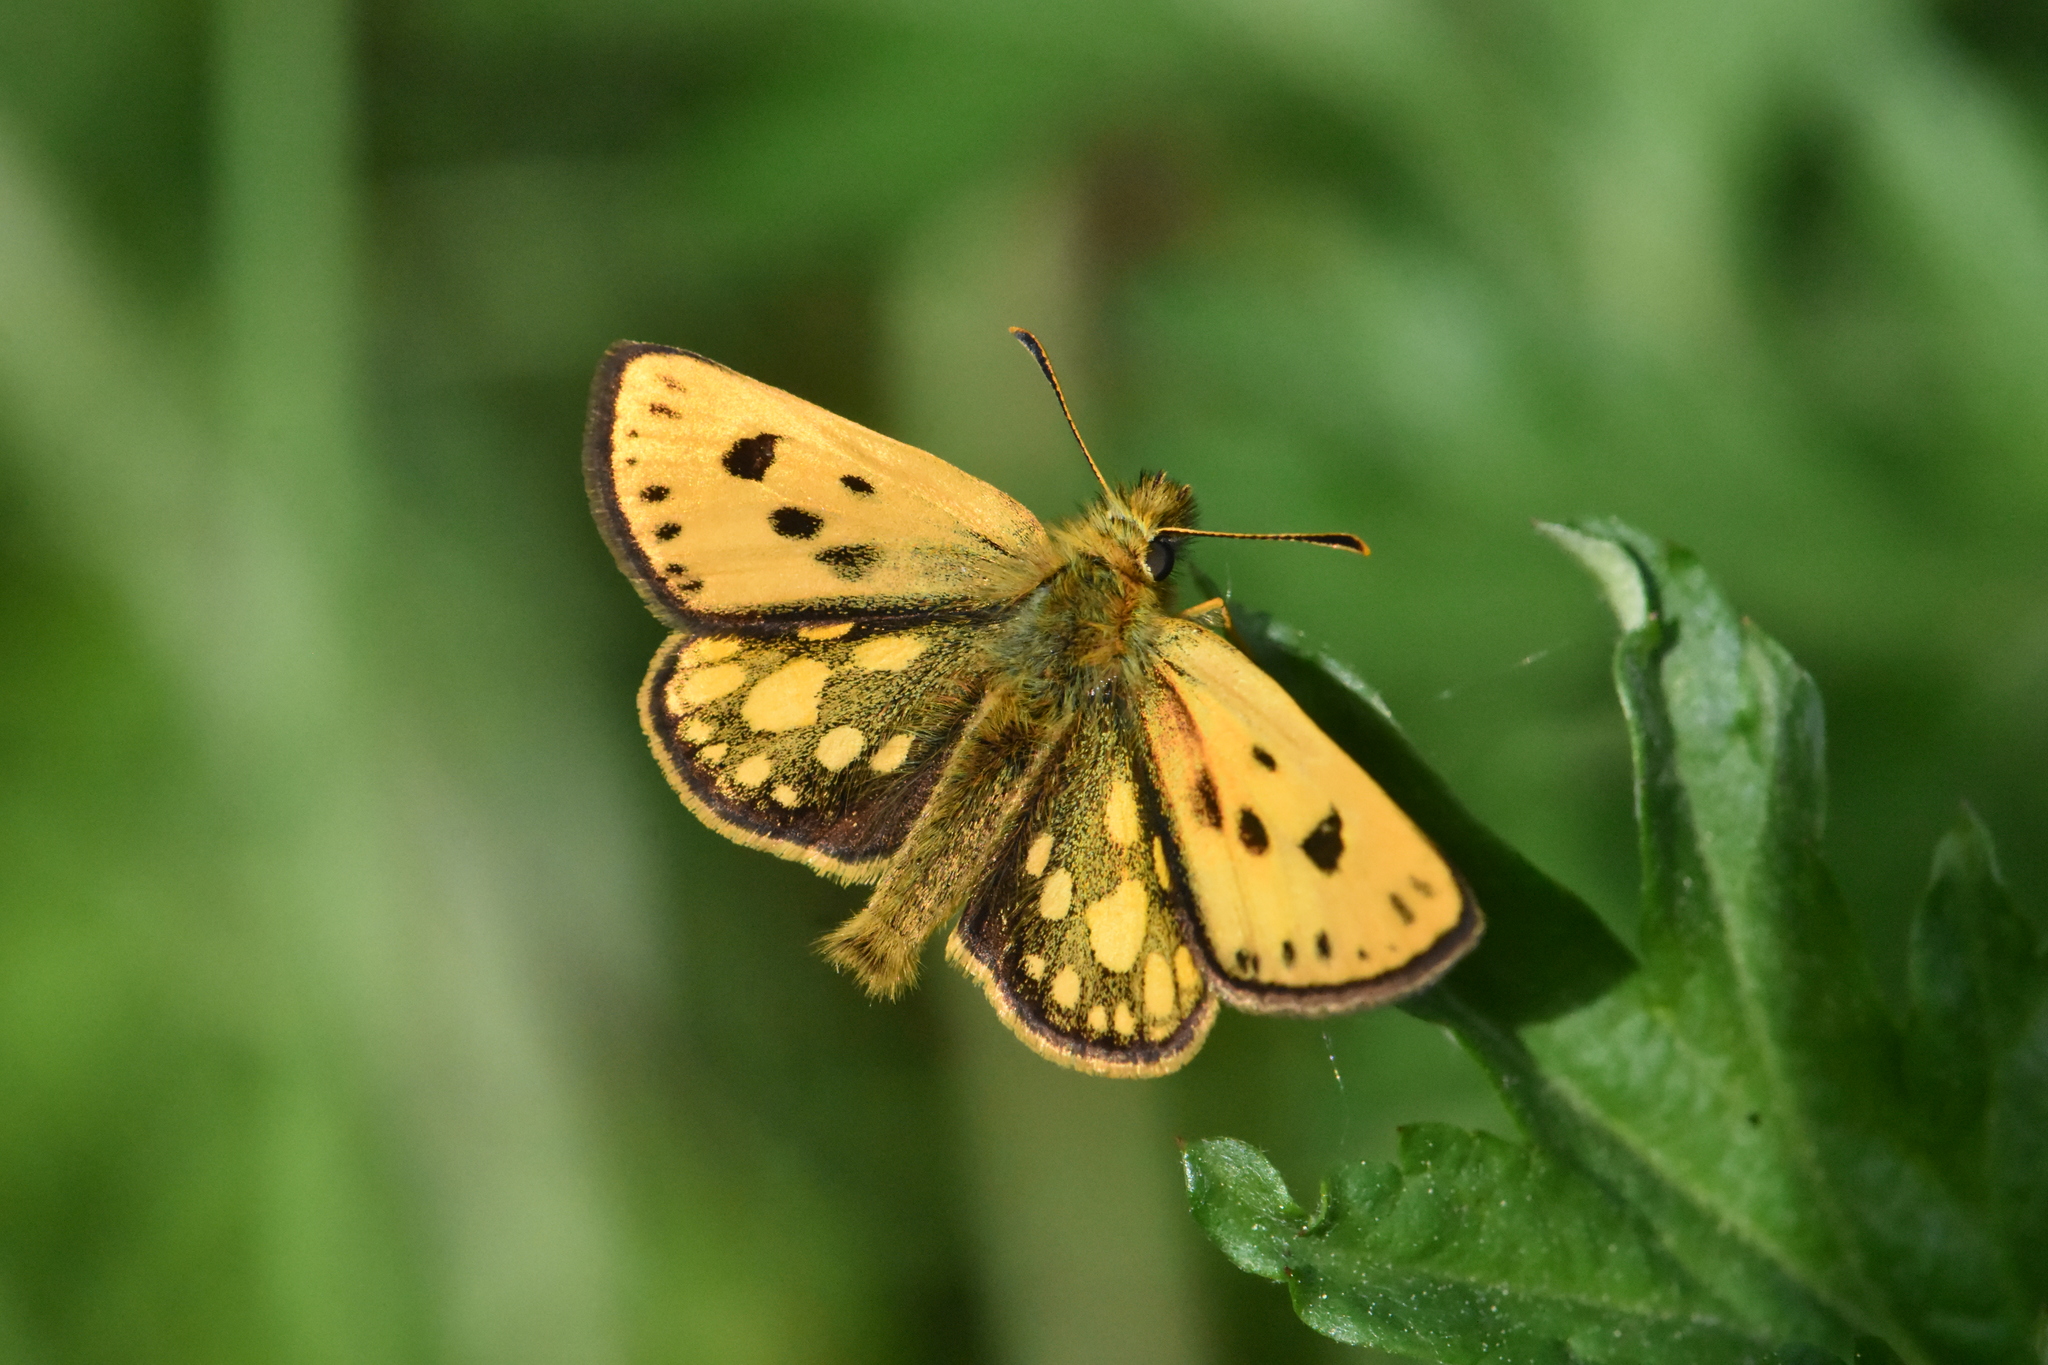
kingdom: Animalia
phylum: Arthropoda
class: Insecta
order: Lepidoptera
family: Hesperiidae
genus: Carterocephalus
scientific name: Carterocephalus silvicola
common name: Northern chequered skipper
